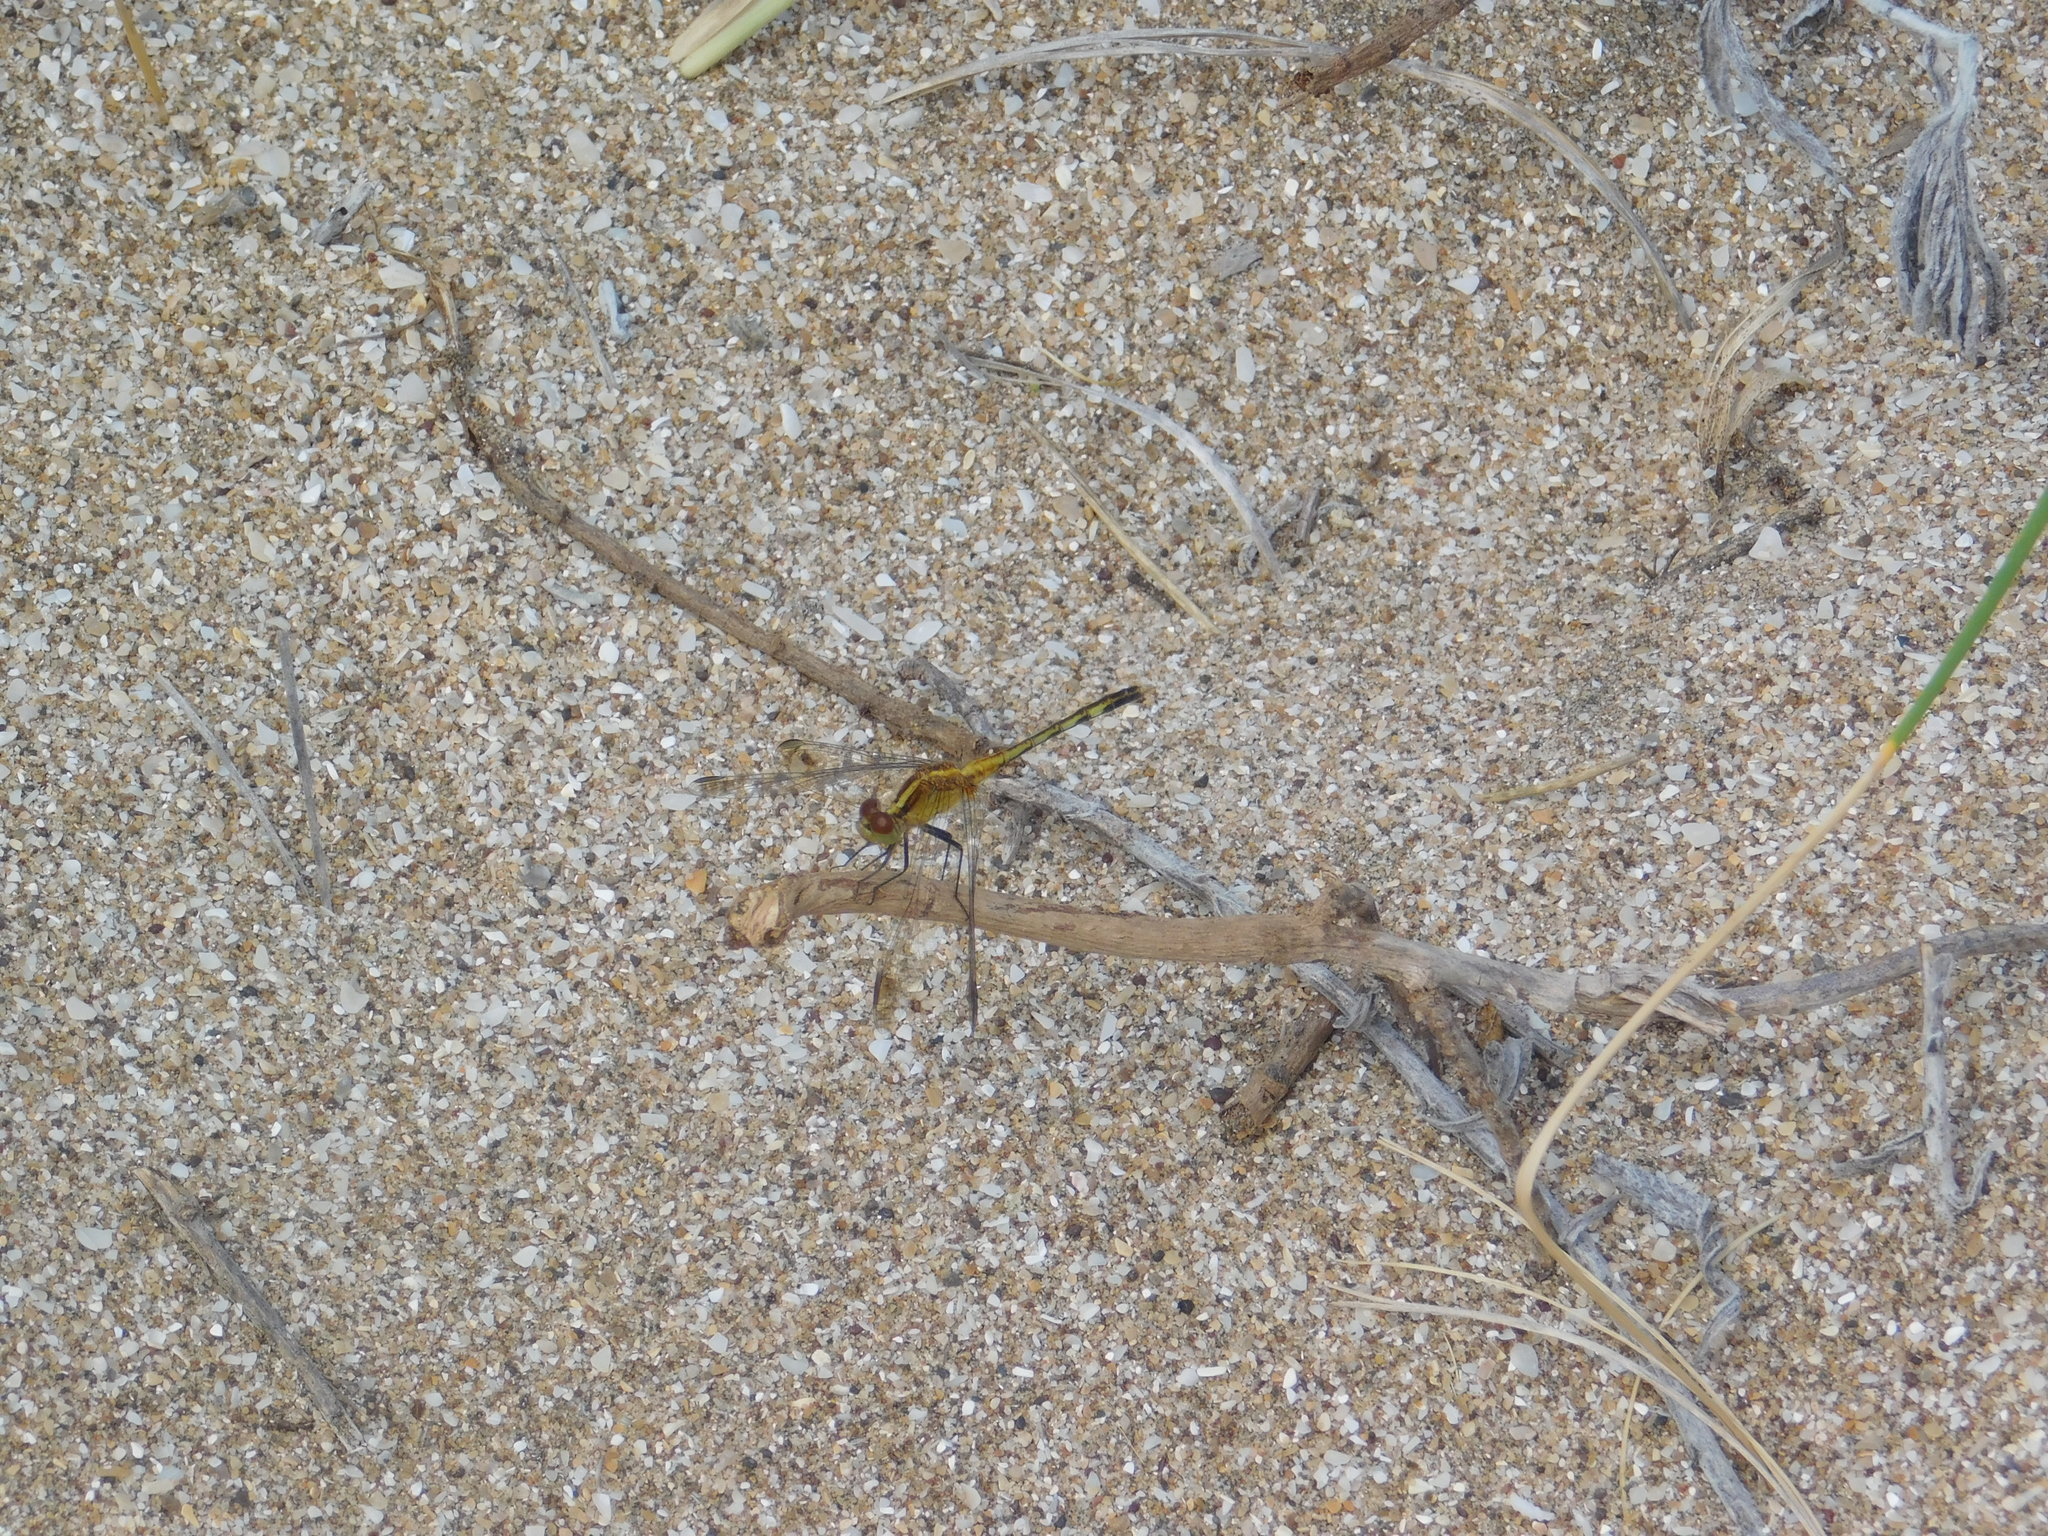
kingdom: Animalia
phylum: Arthropoda
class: Insecta
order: Odonata
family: Libellulidae
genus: Erythrodiplax
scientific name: Erythrodiplax nigricans
